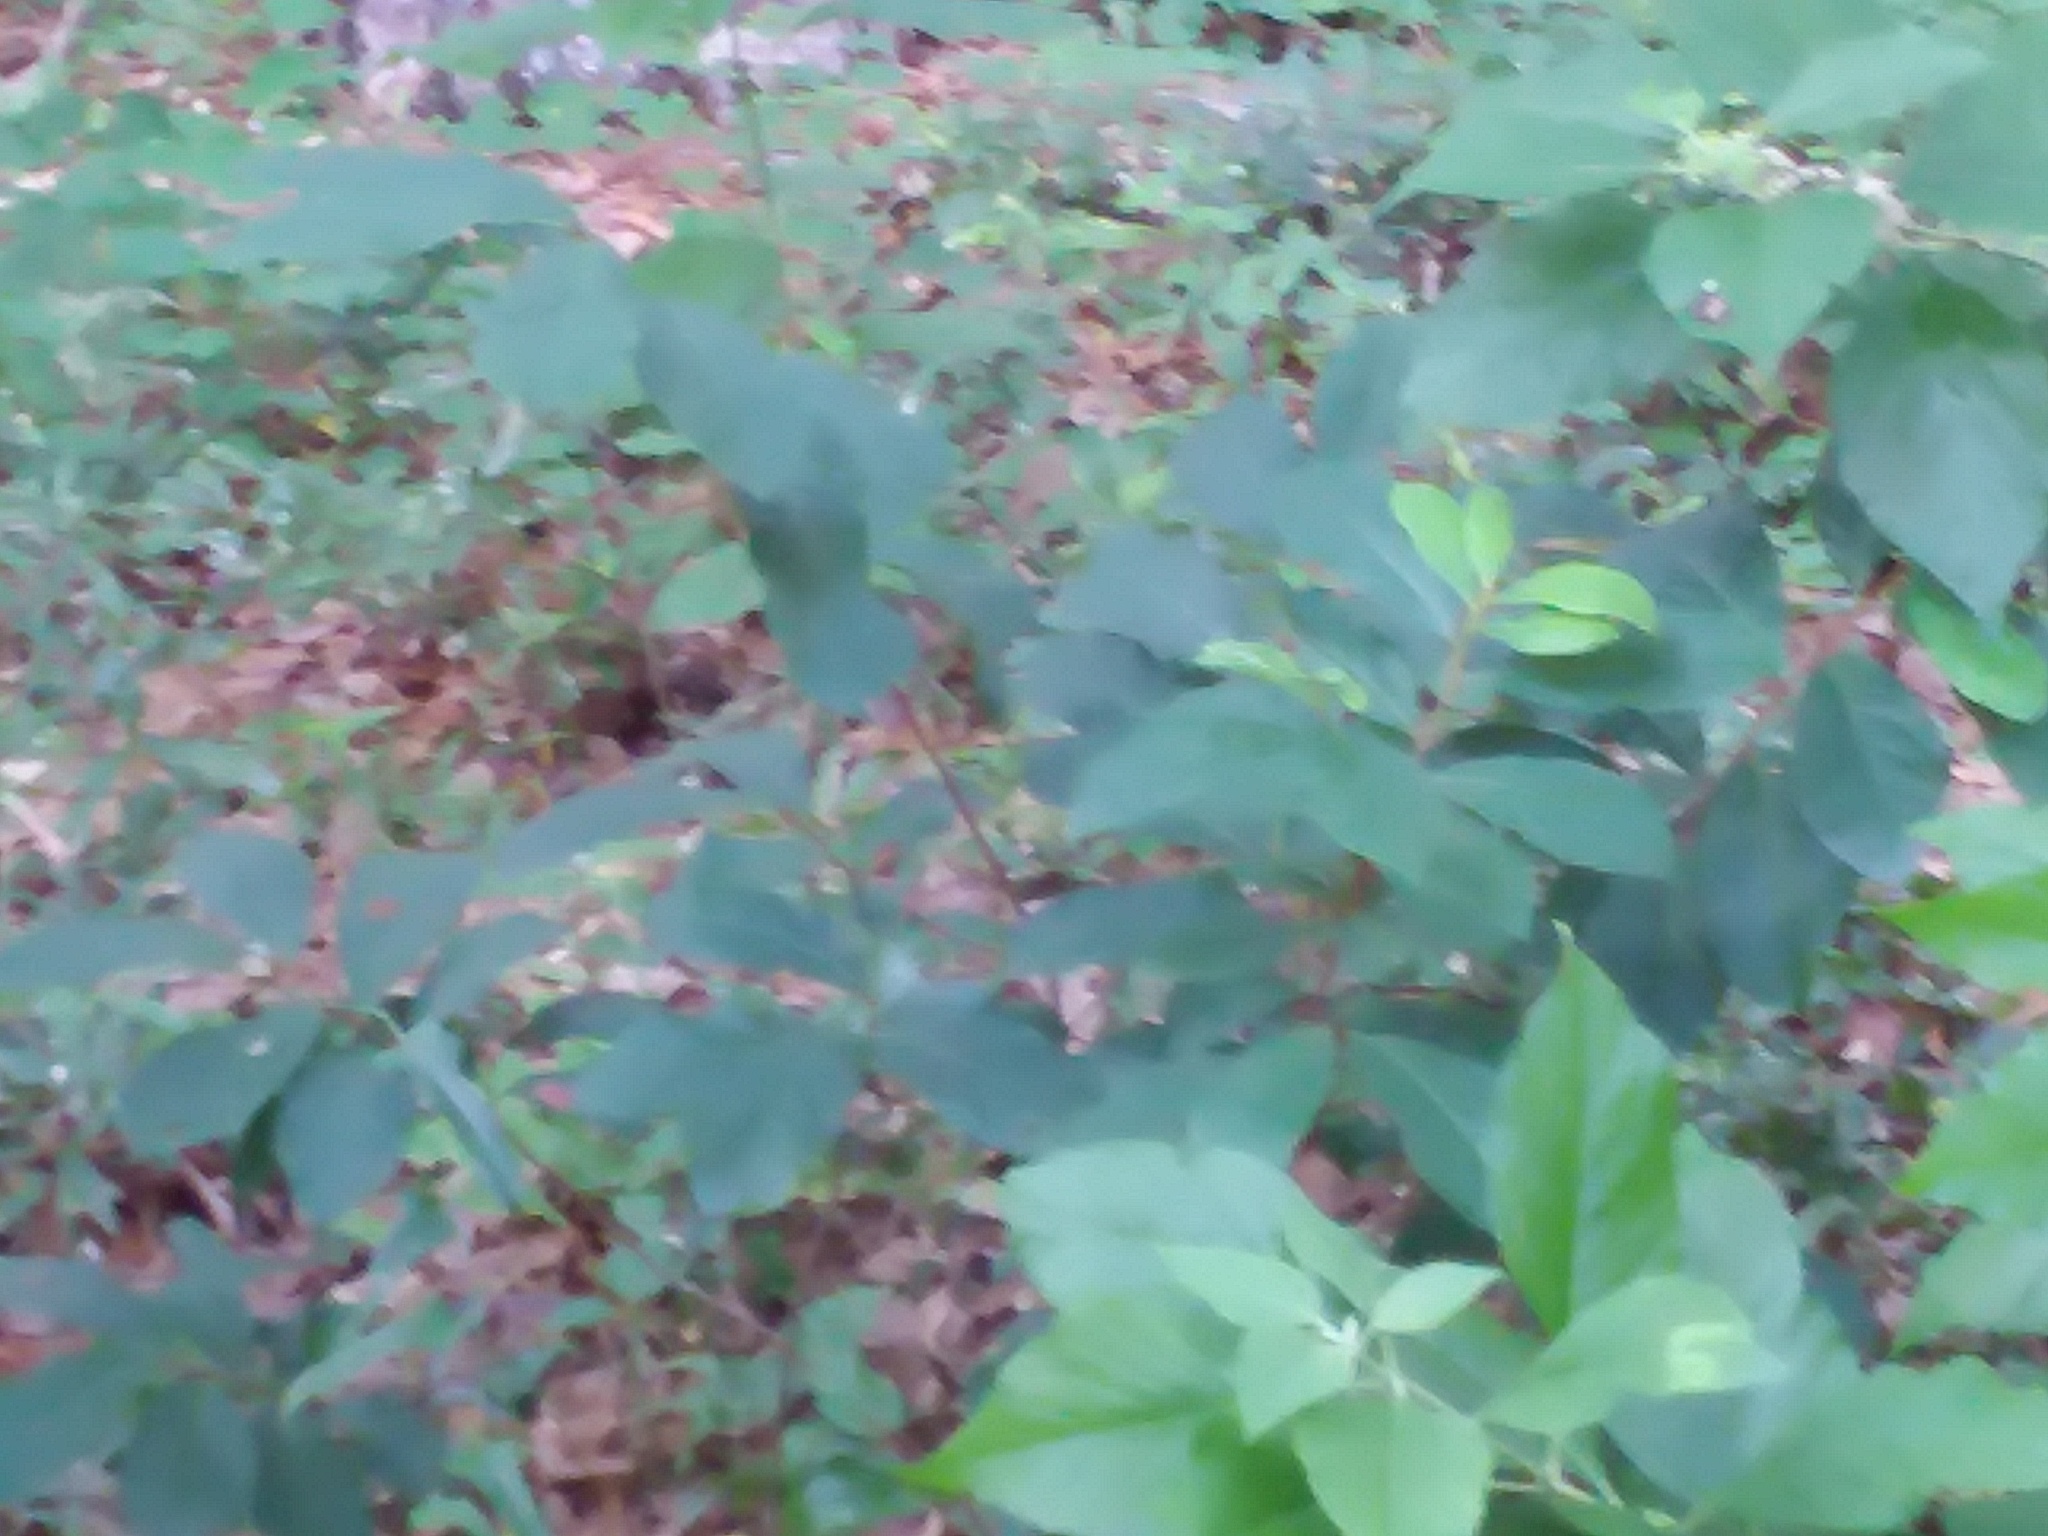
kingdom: Plantae
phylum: Tracheophyta
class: Magnoliopsida
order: Magnoliales
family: Annonaceae
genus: Asimina
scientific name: Asimina parviflora
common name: Dwarf pawpaw
